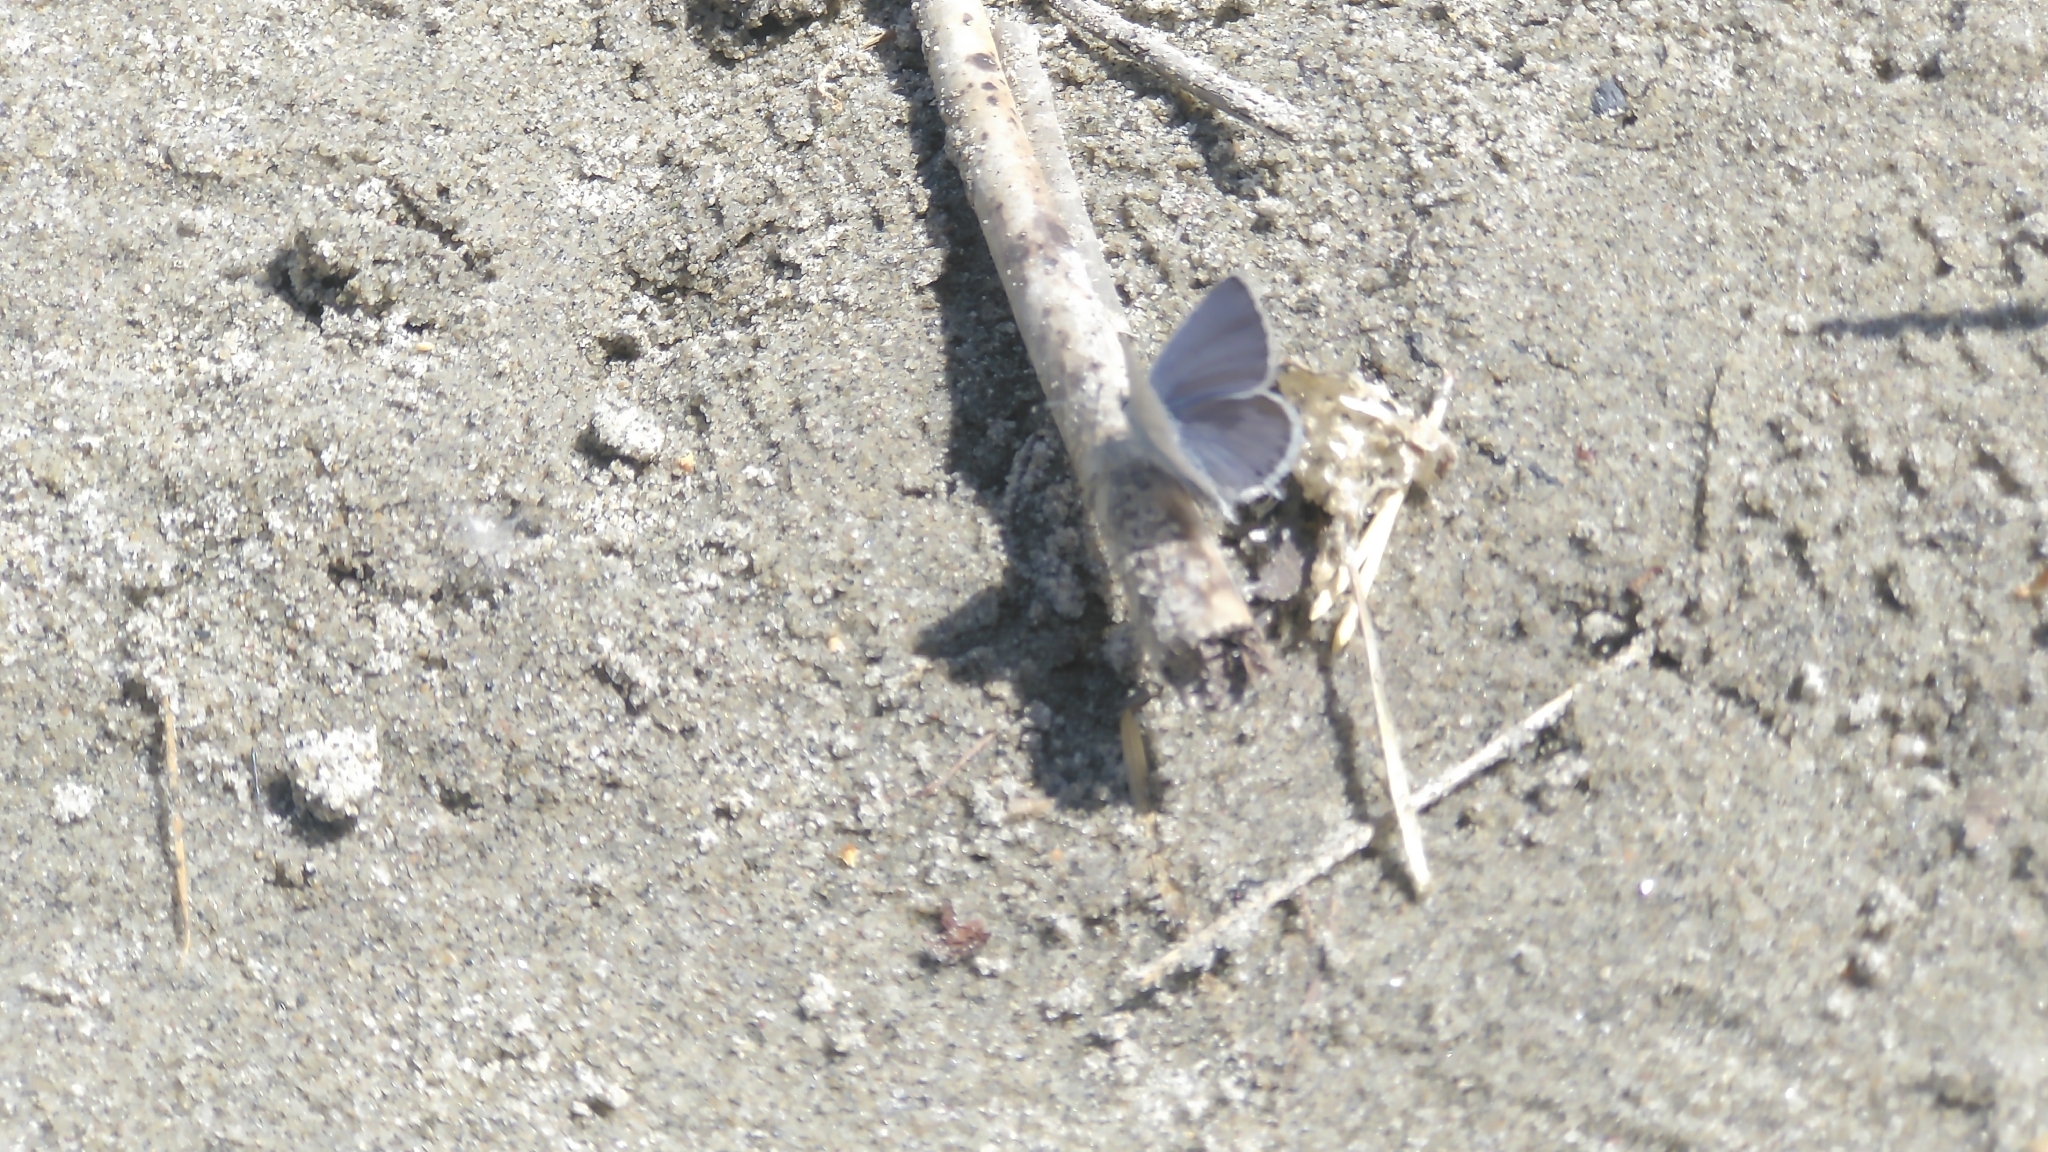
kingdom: Animalia
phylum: Arthropoda
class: Insecta
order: Lepidoptera
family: Lycaenidae
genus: Elkalyce
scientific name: Elkalyce amyntula
